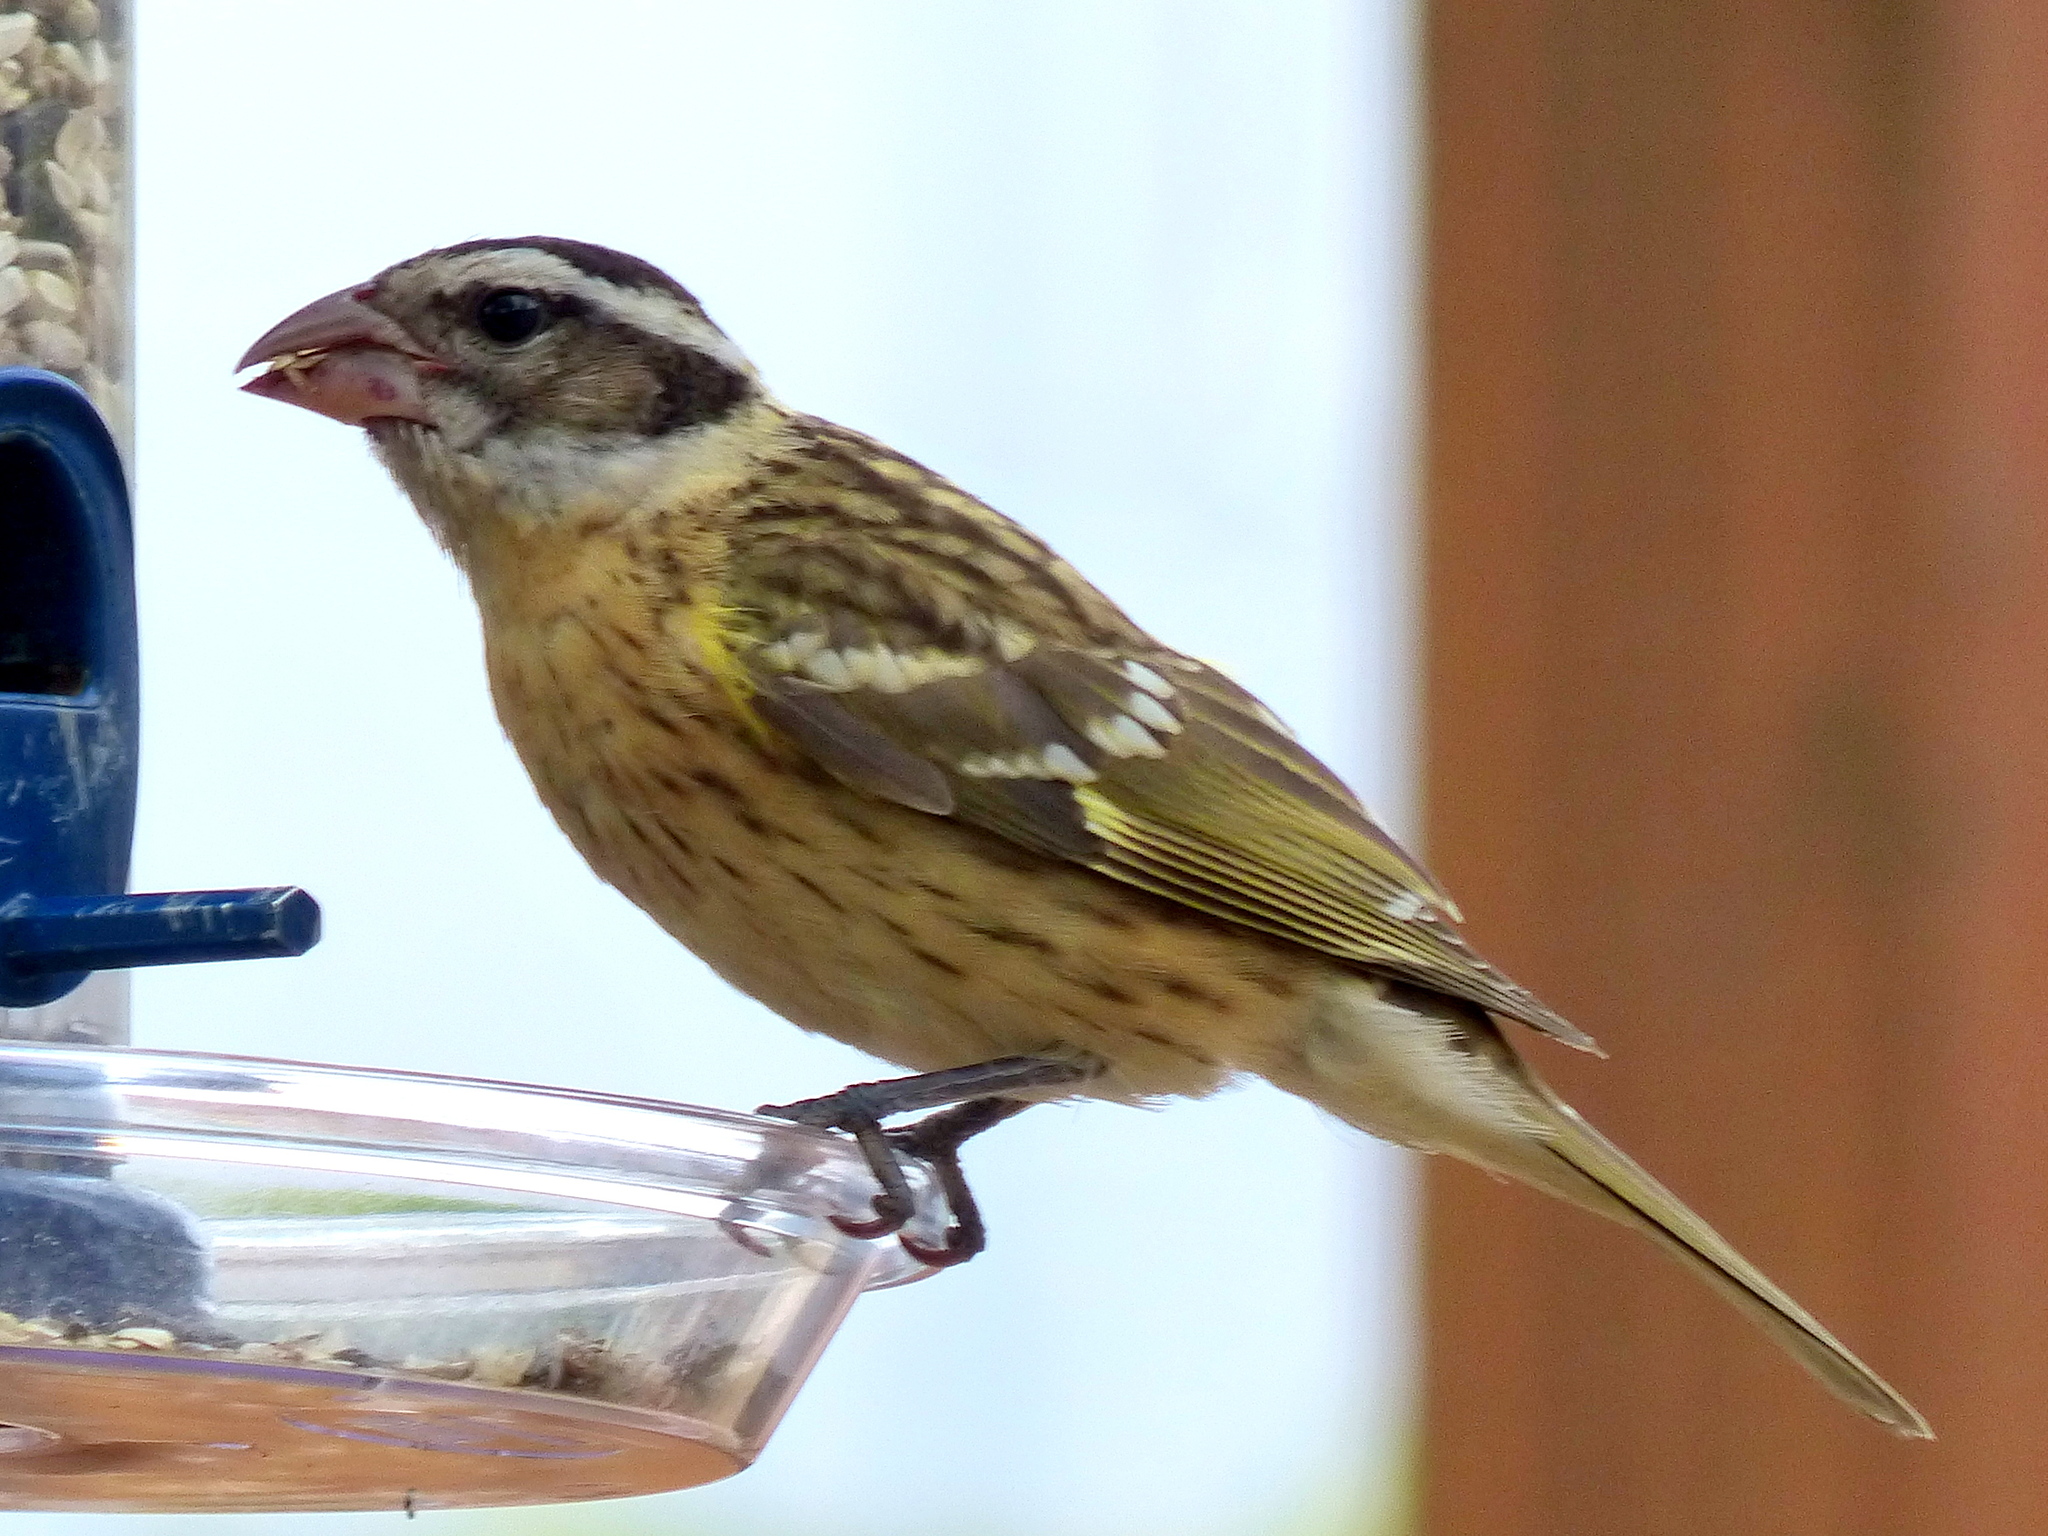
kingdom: Animalia
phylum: Chordata
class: Aves
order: Passeriformes
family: Cardinalidae
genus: Pheucticus
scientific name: Pheucticus melanocephalus
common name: Black-headed grosbeak
